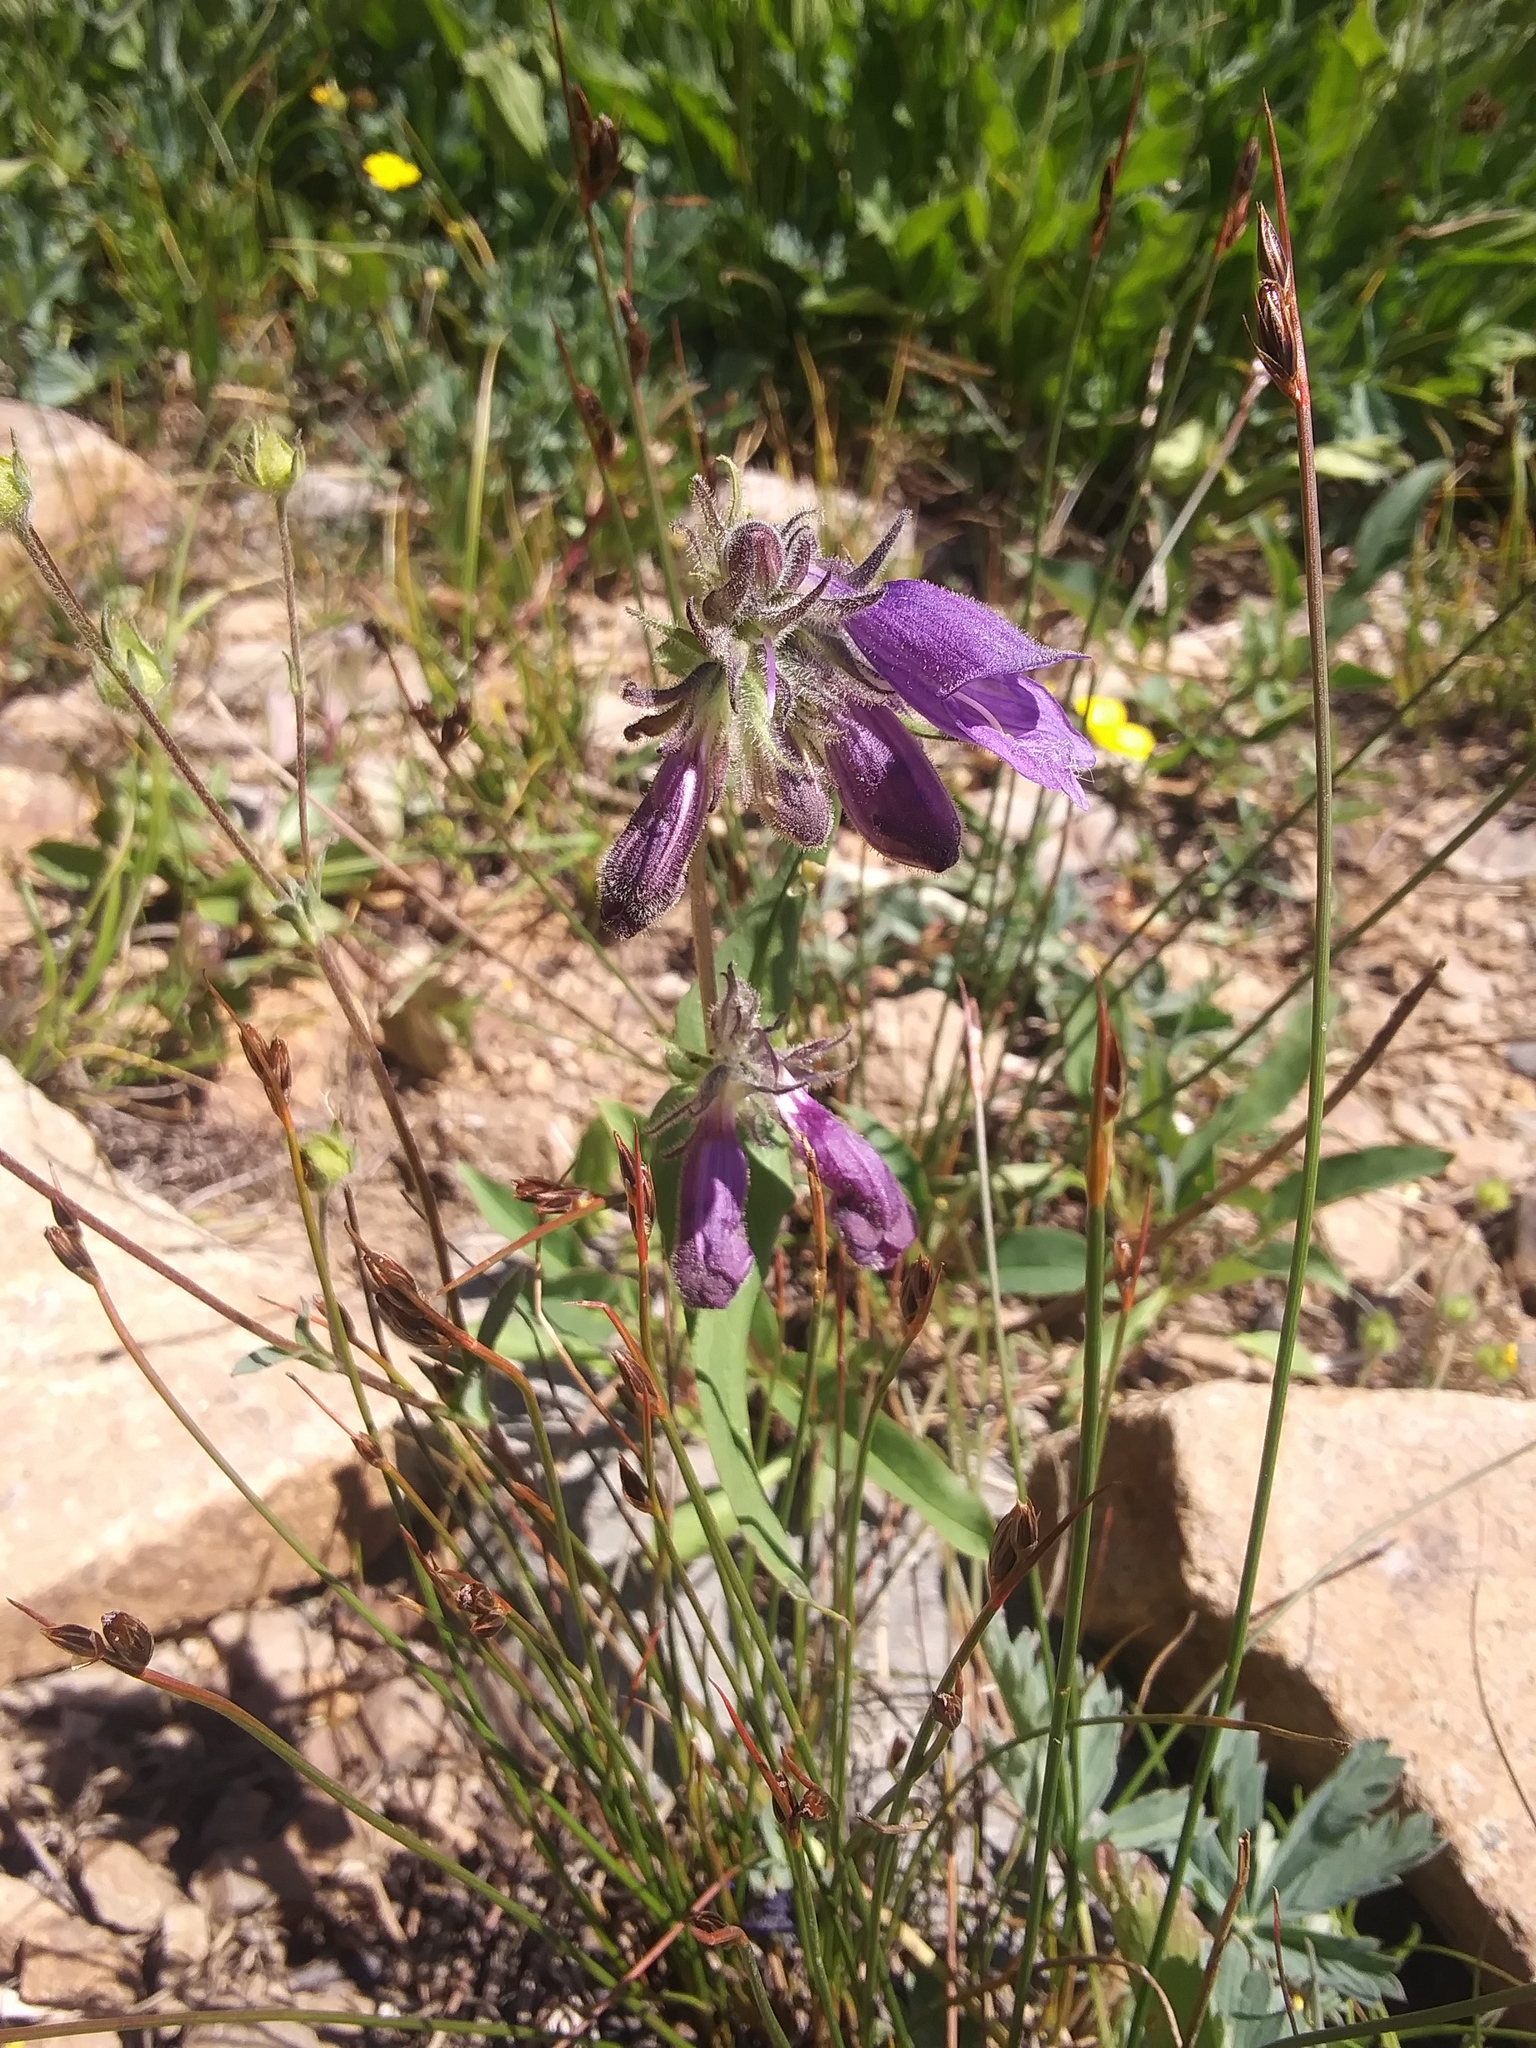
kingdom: Plantae
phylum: Tracheophyta
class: Magnoliopsida
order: Lamiales
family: Plantaginaceae
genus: Penstemon
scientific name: Penstemon whippleanus
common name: Whipple's penstemon
